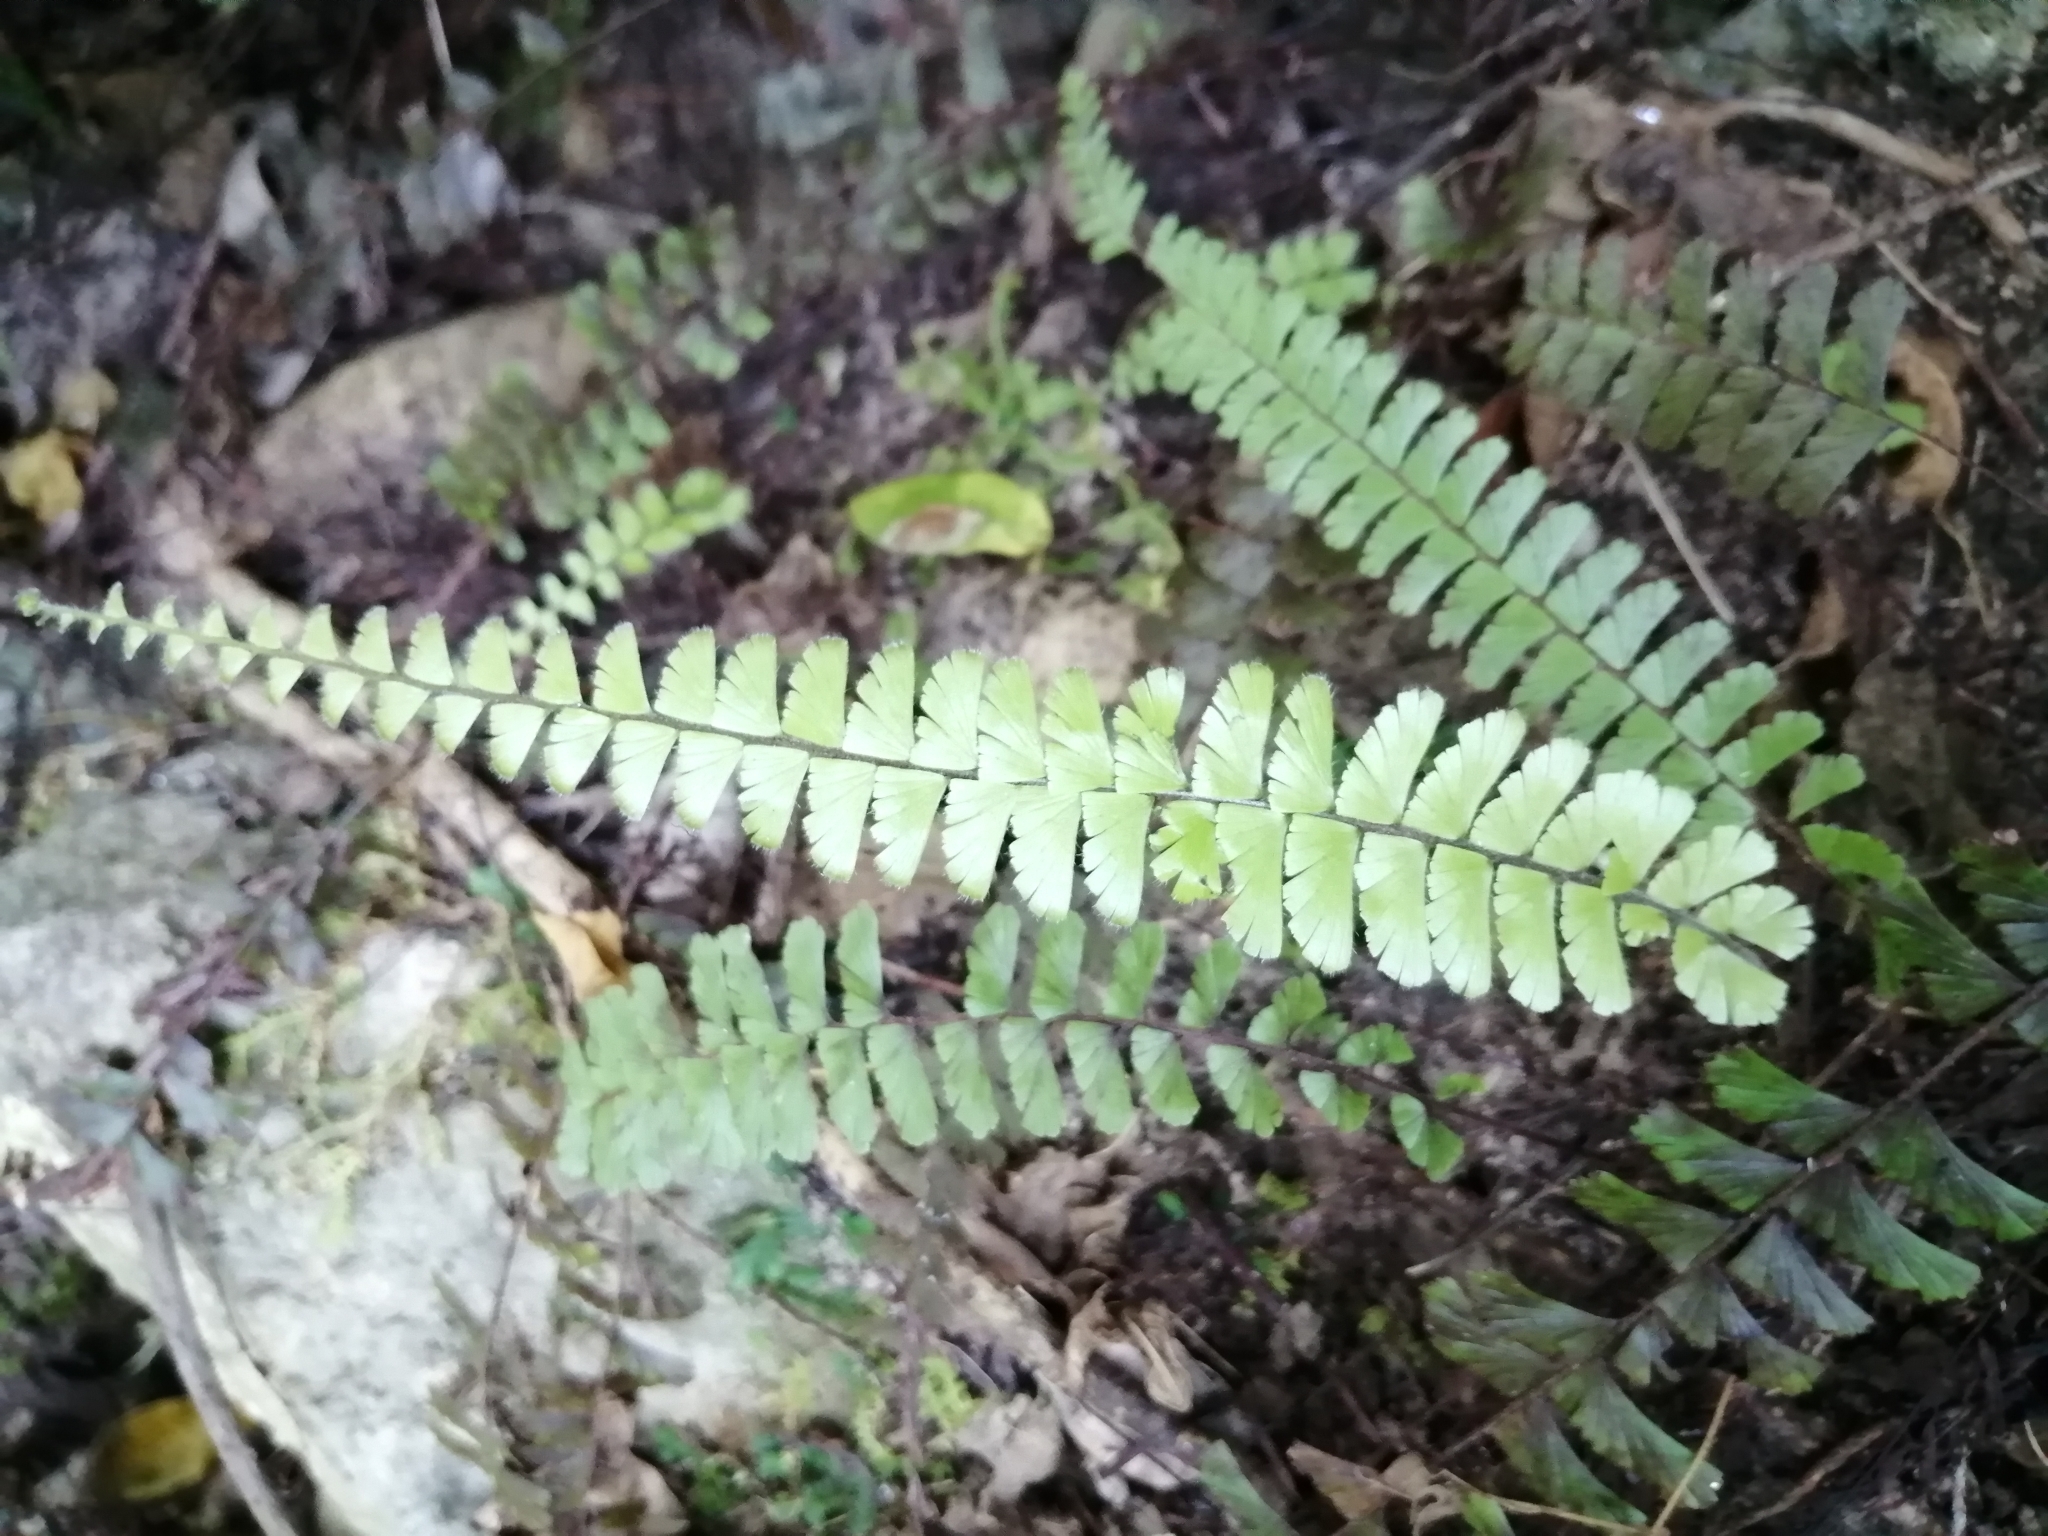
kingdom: Plantae
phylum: Tracheophyta
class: Polypodiopsida
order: Polypodiales
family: Pteridaceae
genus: Adiantum
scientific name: Adiantum caudatum
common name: Tailed maidenhair
